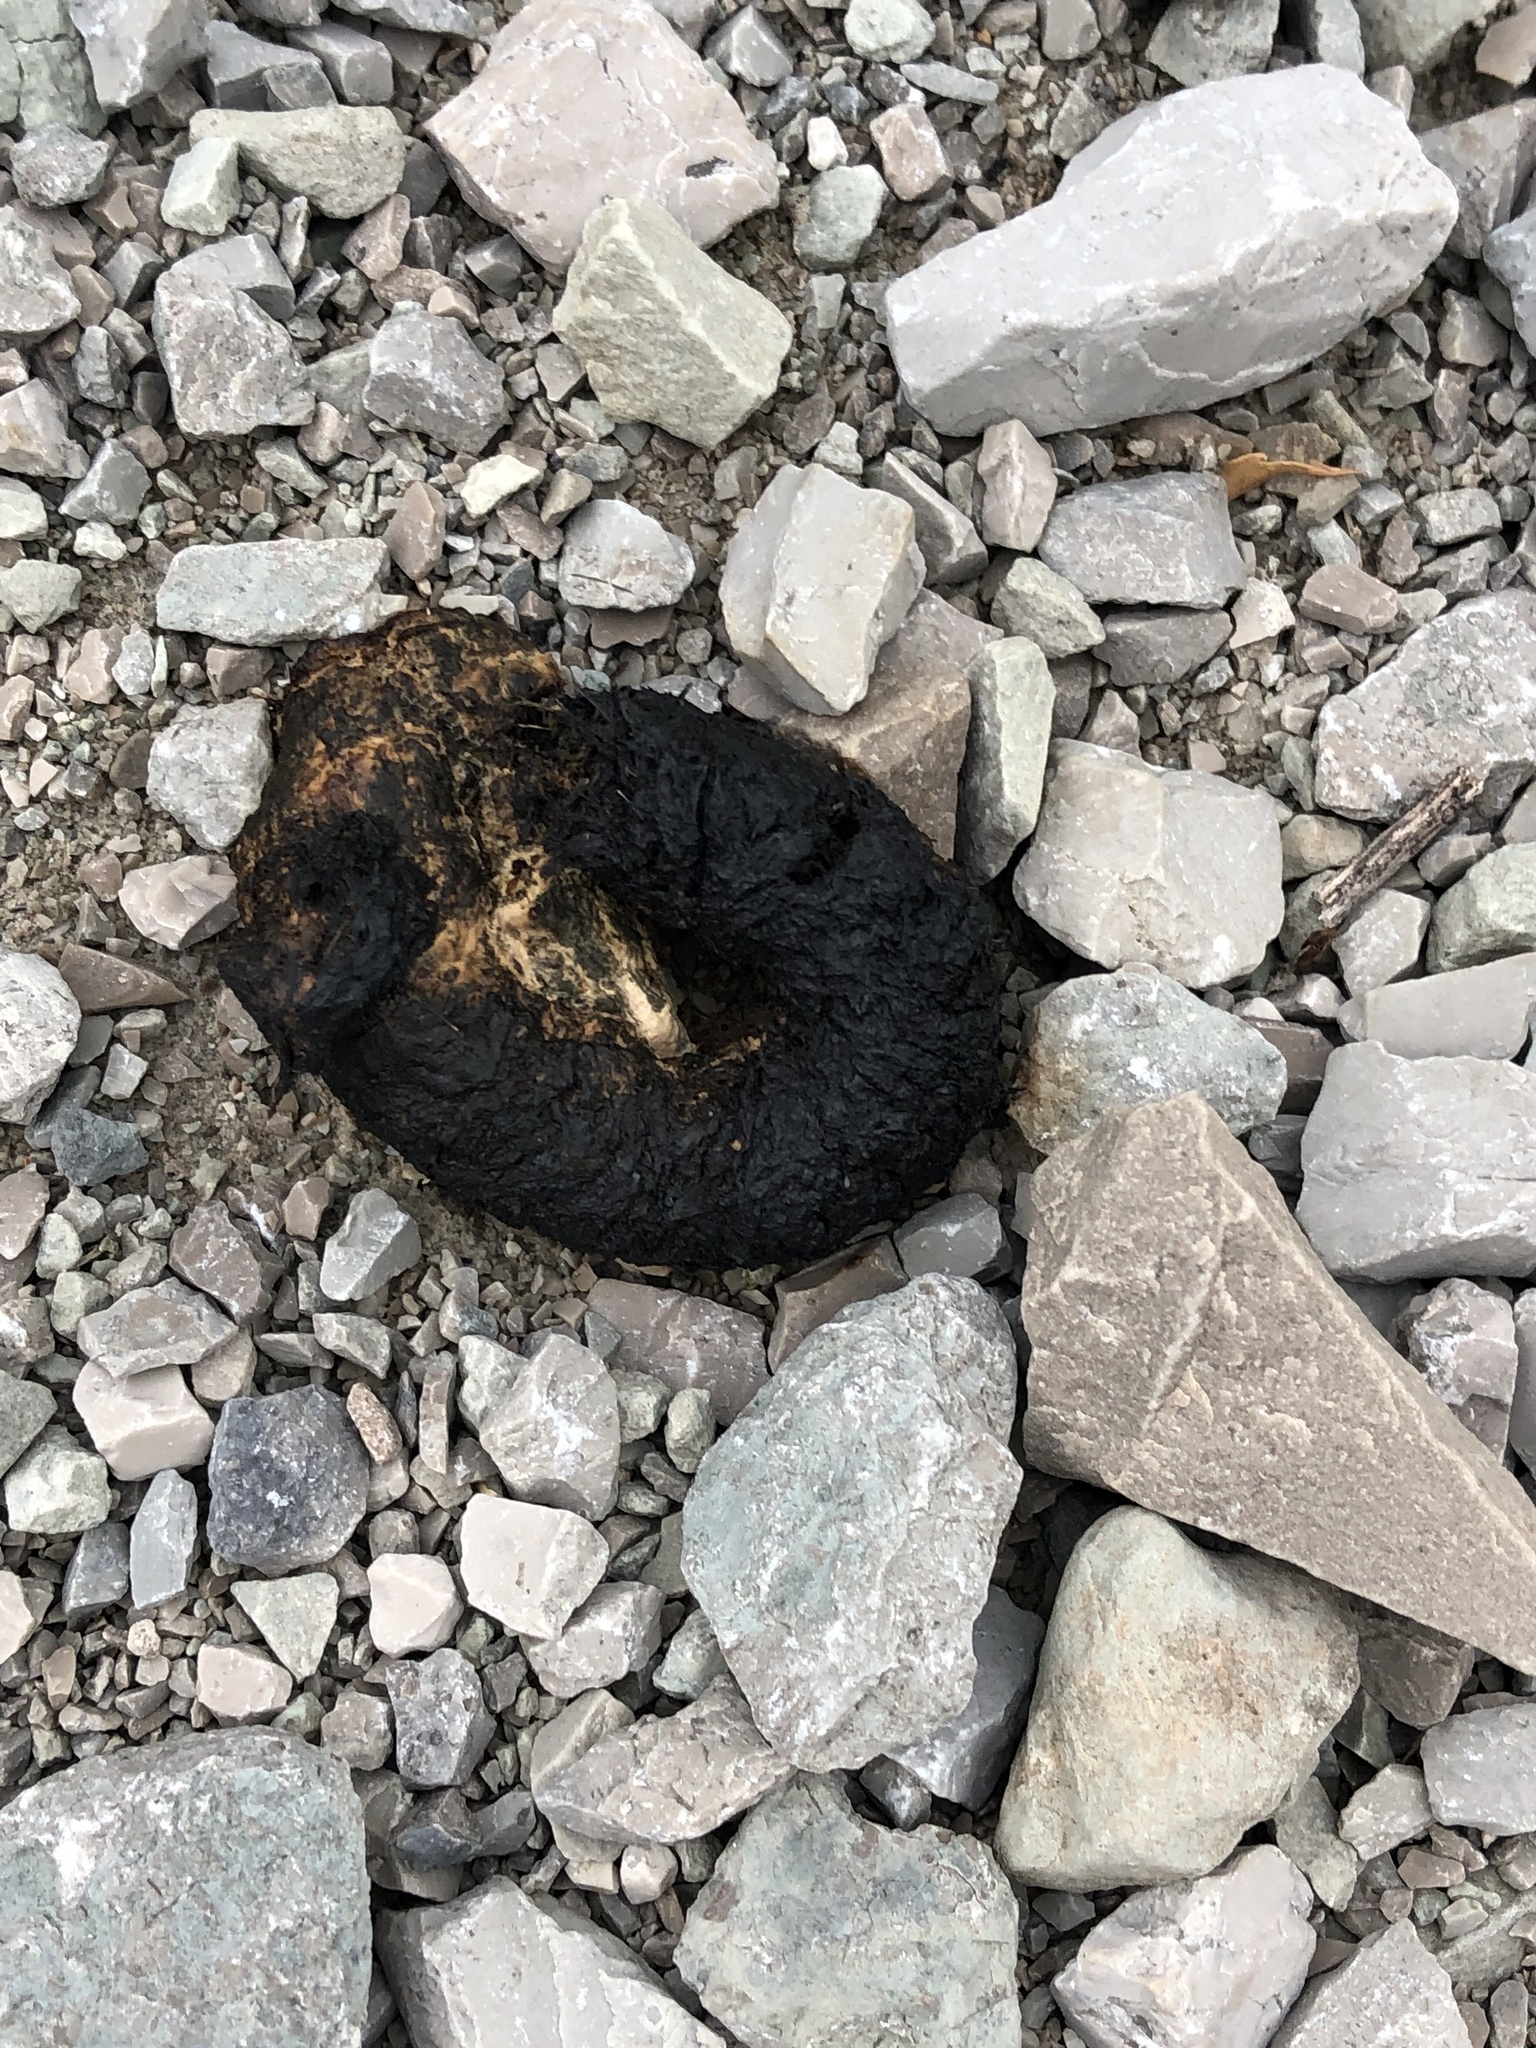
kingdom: Animalia
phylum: Chordata
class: Aves
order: Anseriformes
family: Anatidae
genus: Branta
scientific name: Branta canadensis
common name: Canada goose
